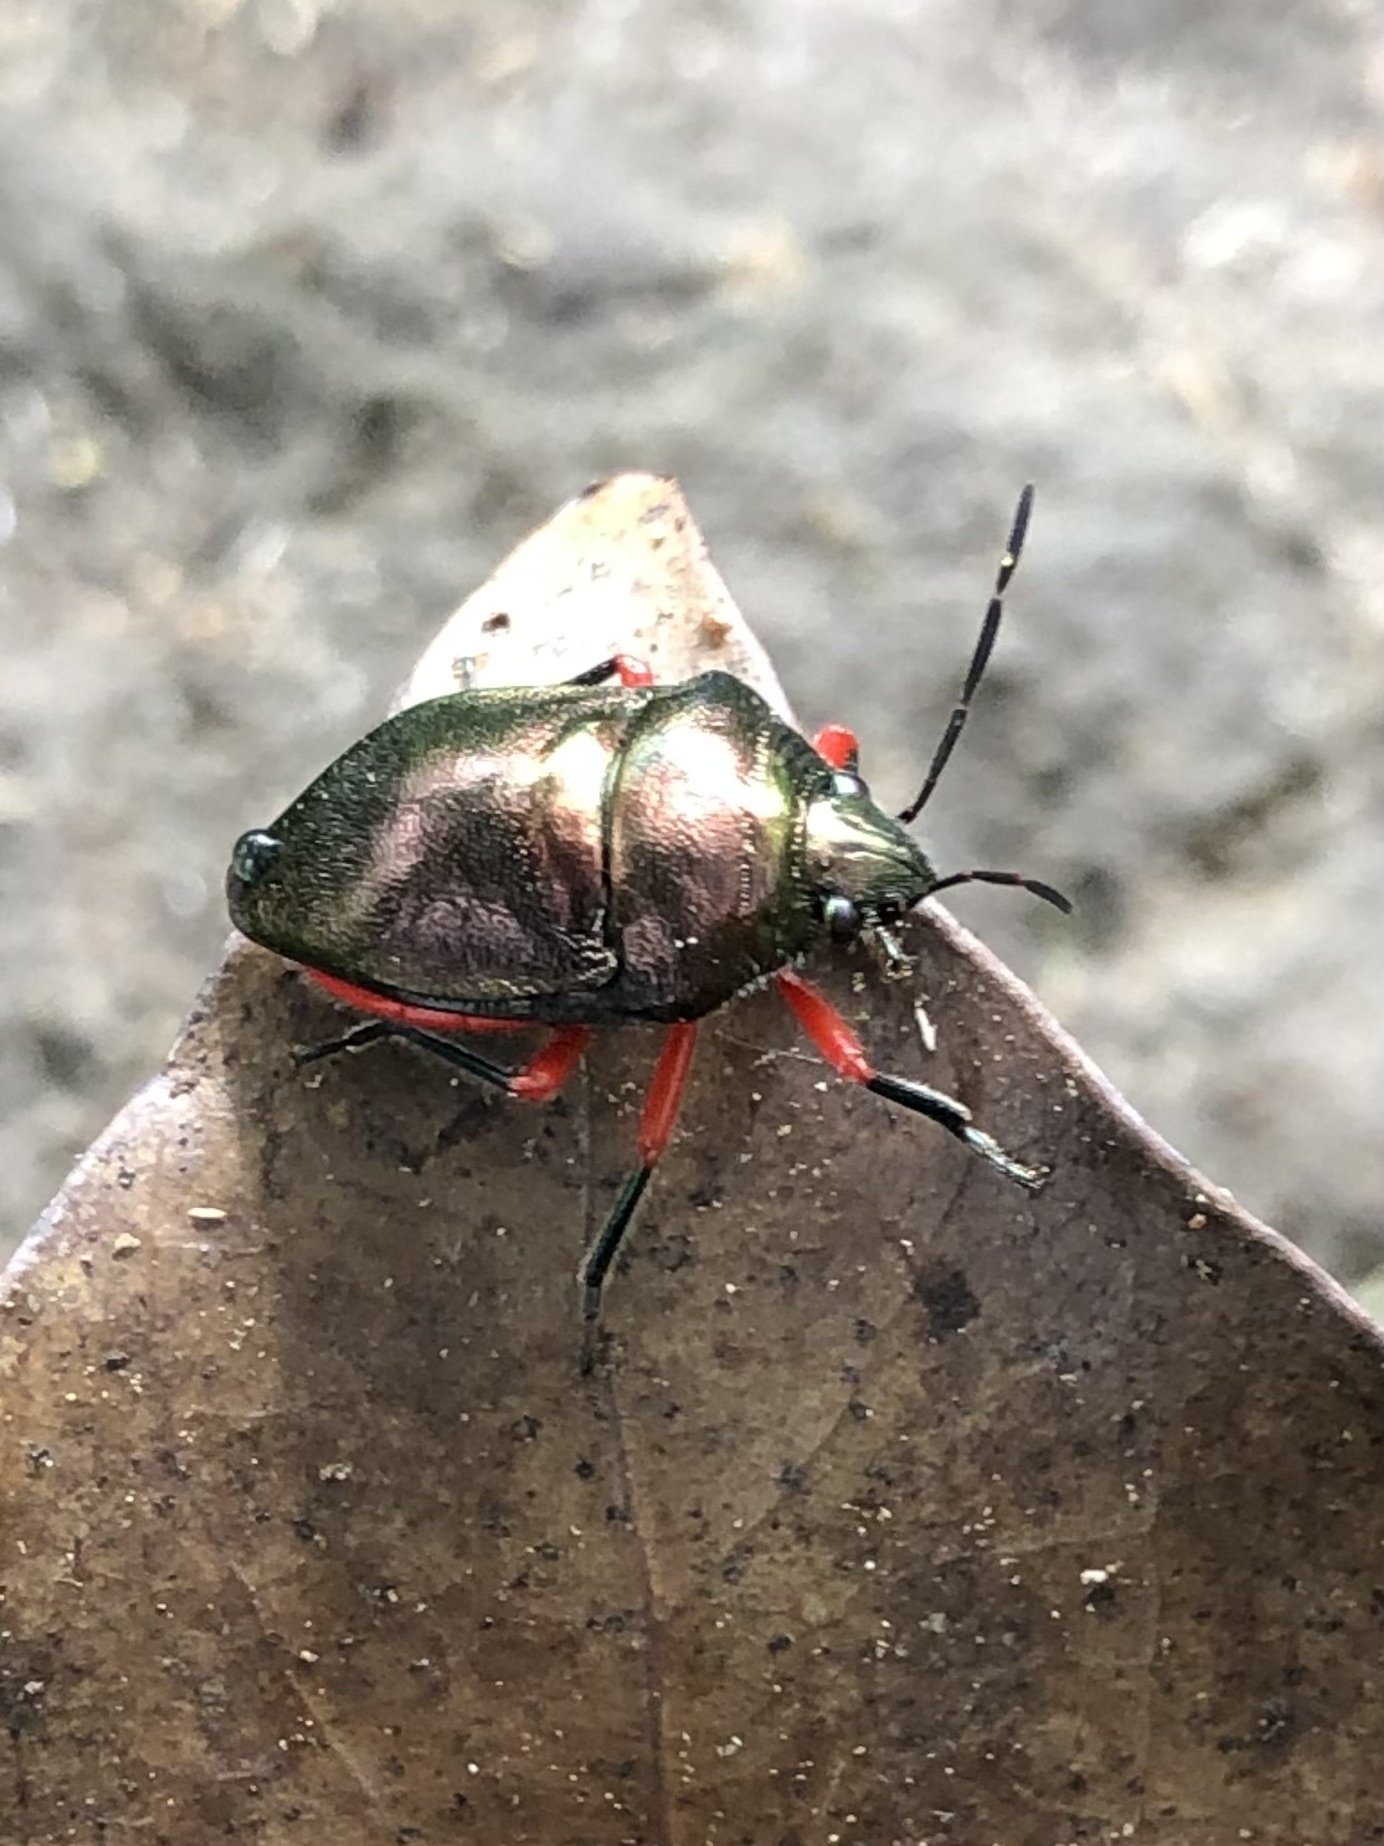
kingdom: Animalia
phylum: Arthropoda
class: Insecta
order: Hemiptera
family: Scutelleridae
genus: Lampromicra
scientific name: Lampromicra
